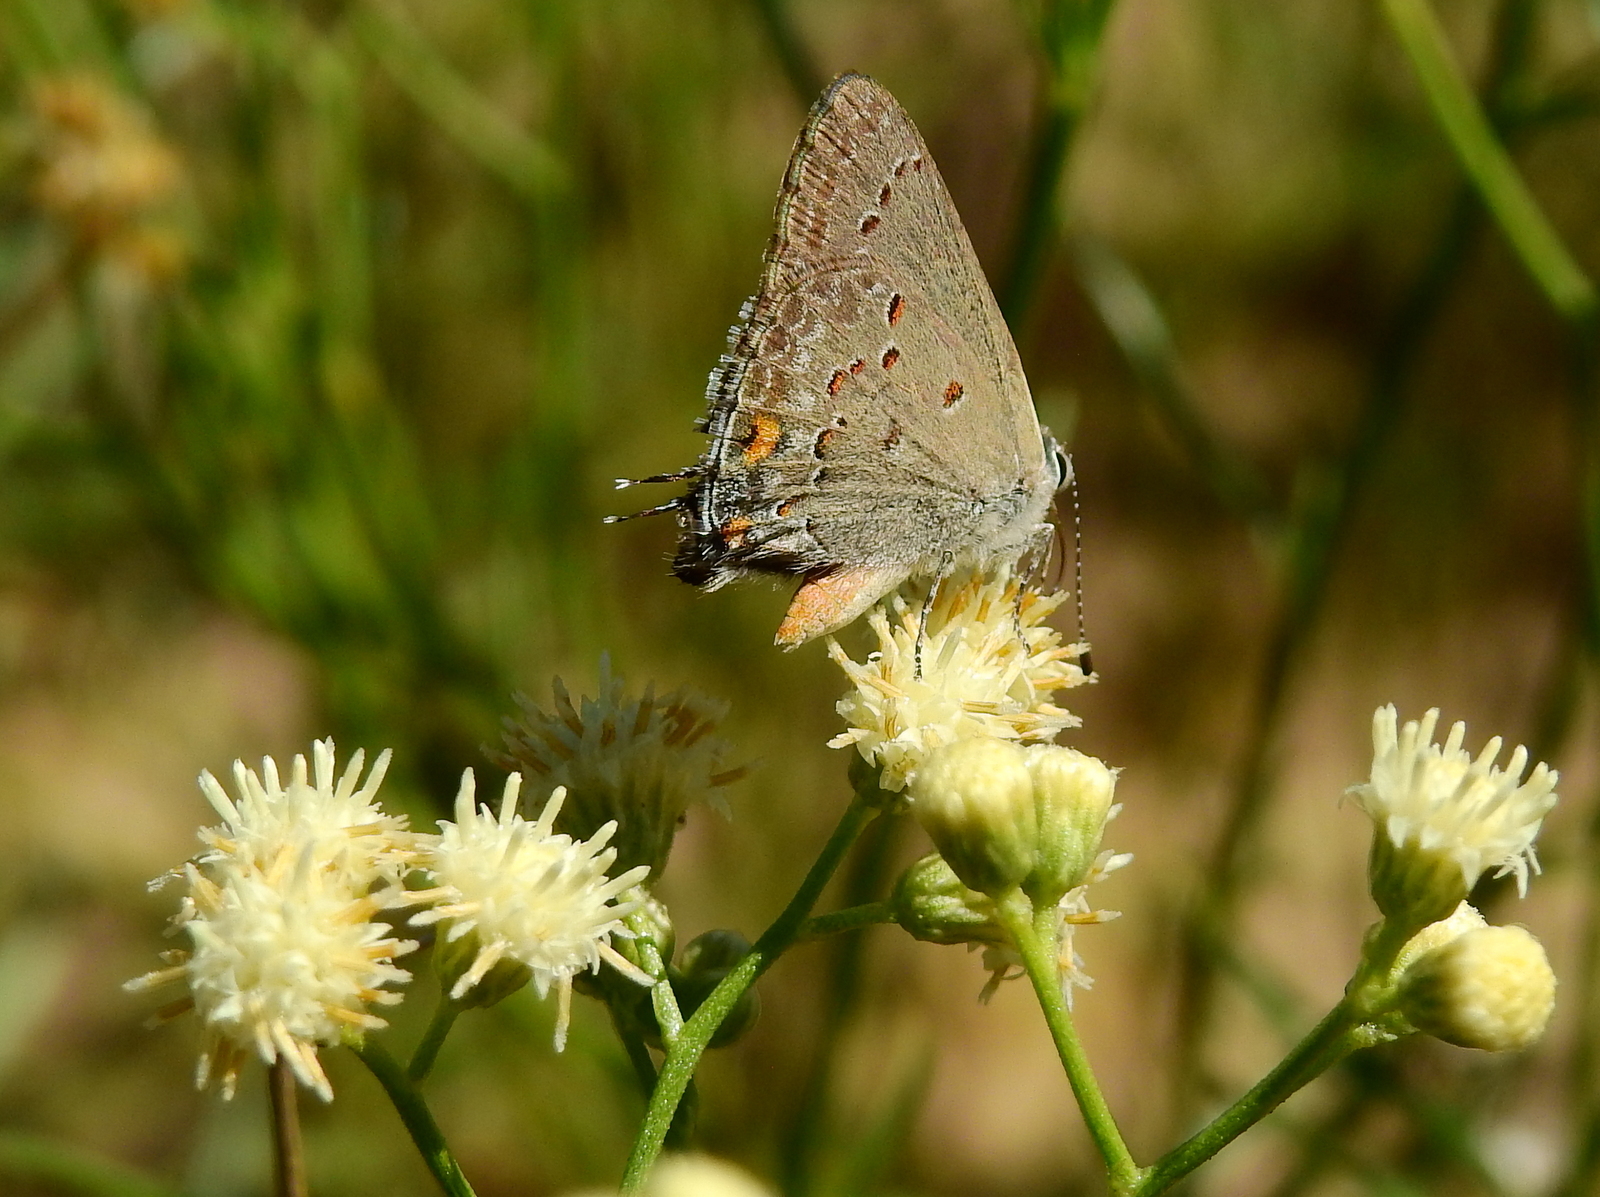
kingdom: Animalia
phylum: Arthropoda
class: Insecta
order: Lepidoptera
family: Lycaenidae
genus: Strymon
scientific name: Strymon eurytulus
